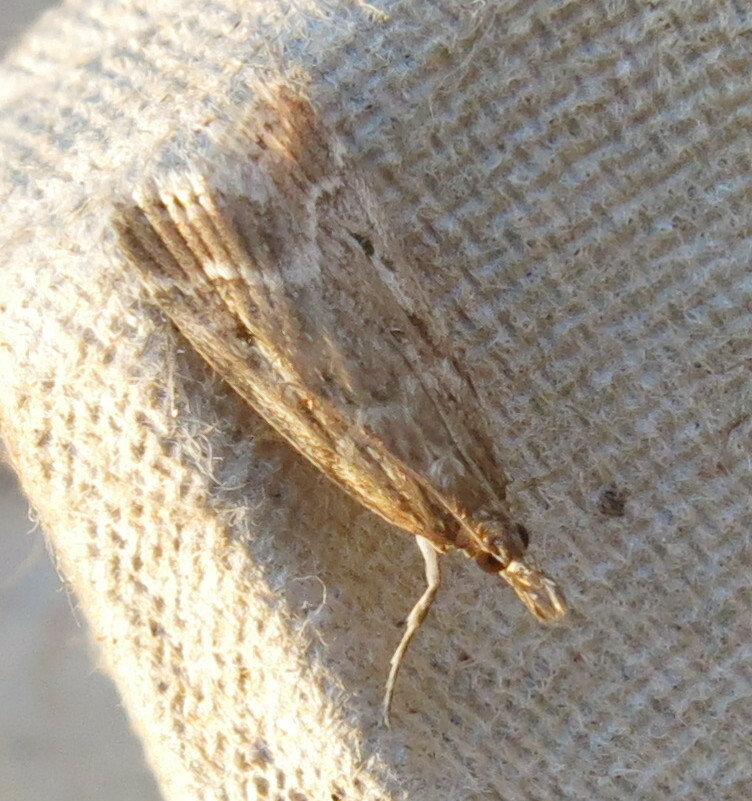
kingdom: Animalia
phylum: Arthropoda
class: Insecta
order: Lepidoptera
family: Crambidae
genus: Eudonia
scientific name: Eudonia truncicolella
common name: Ground-moss grey
